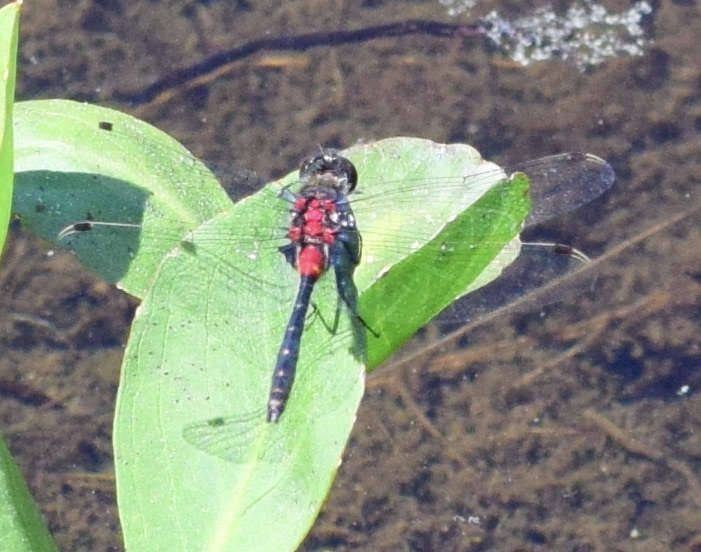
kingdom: Animalia
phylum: Arthropoda
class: Insecta
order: Odonata
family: Libellulidae
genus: Leucorrhinia
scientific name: Leucorrhinia glacialis
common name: Crimson-ringed whiteface
